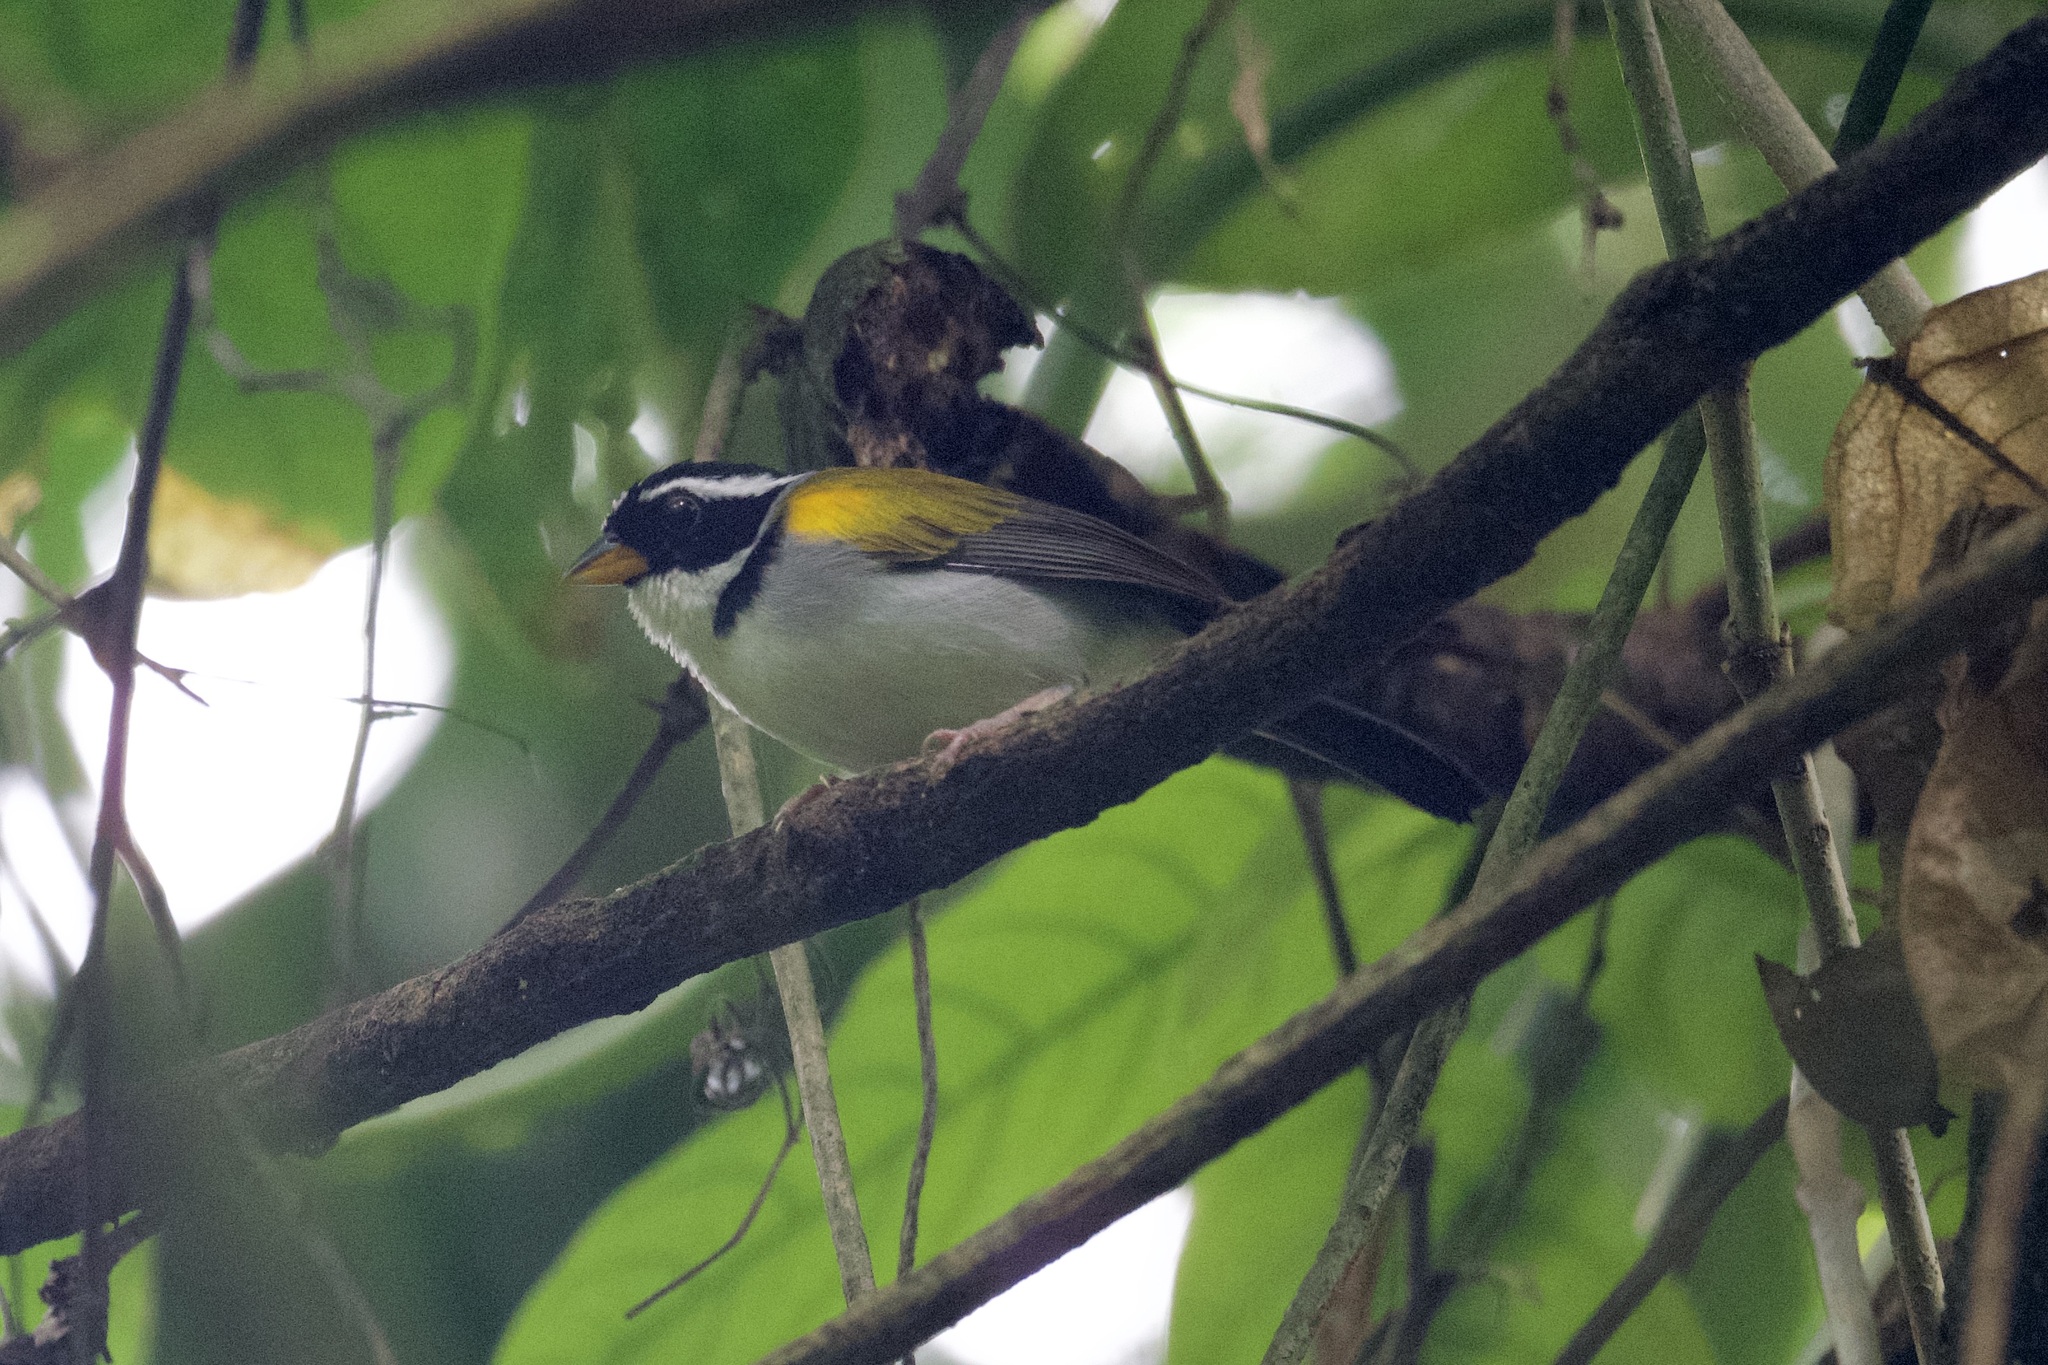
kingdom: Animalia
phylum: Chordata
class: Aves
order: Passeriformes
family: Passerellidae
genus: Arremon
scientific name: Arremon taciturnus
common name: Pectoral sparrow
